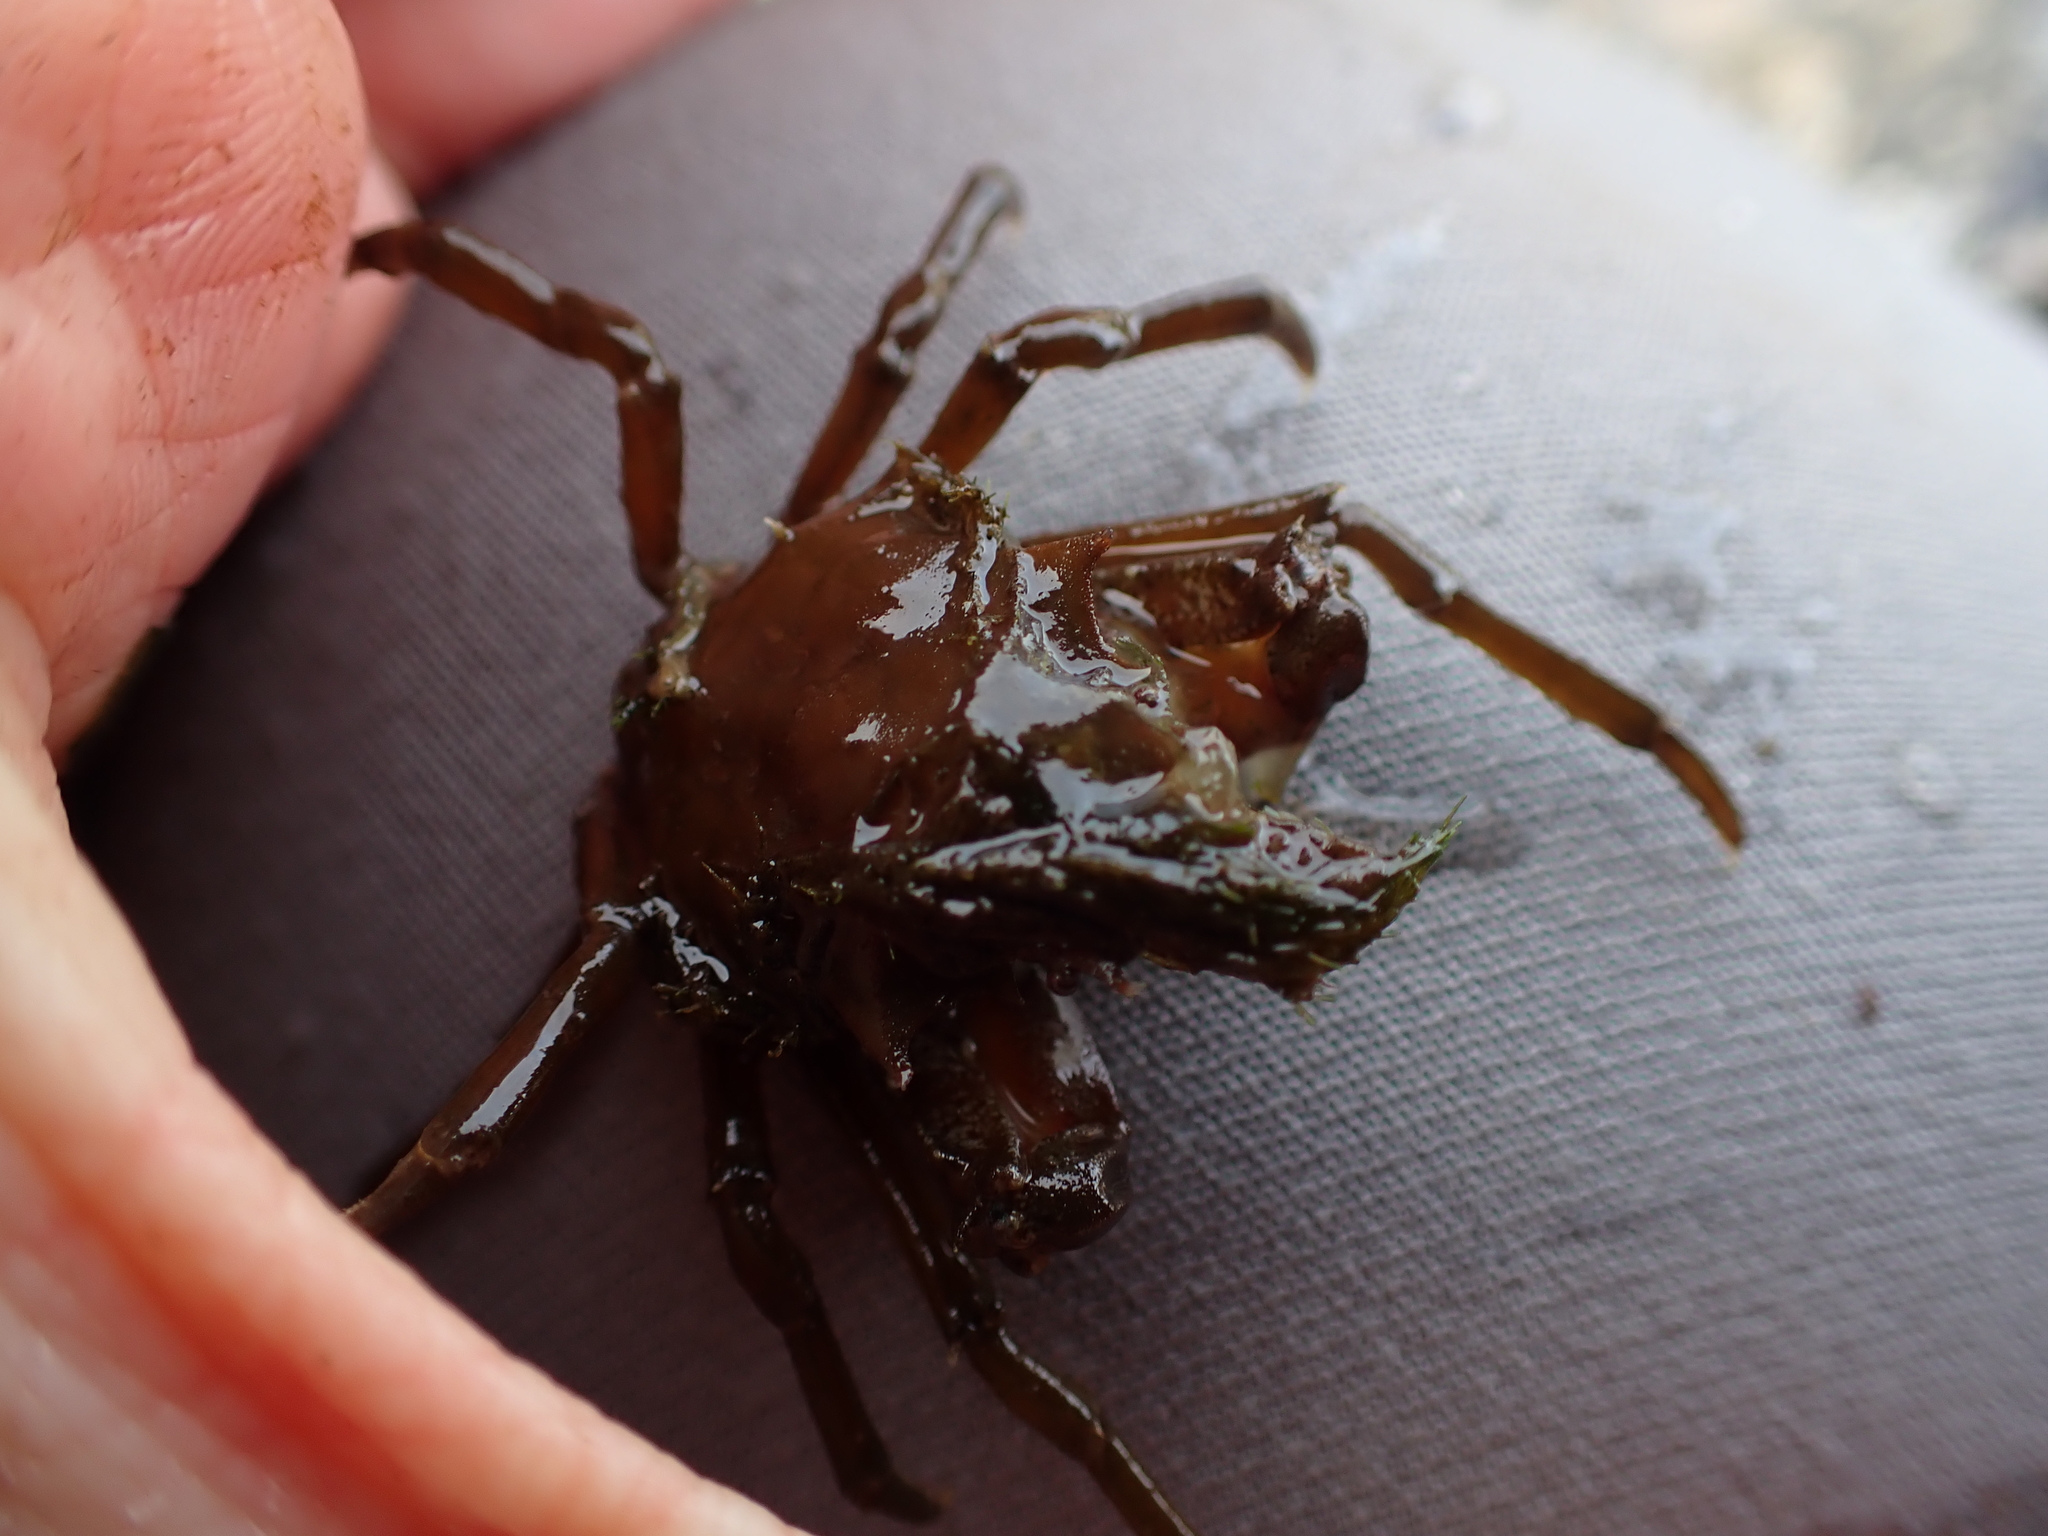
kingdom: Animalia
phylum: Arthropoda
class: Malacostraca
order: Decapoda
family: Epialtidae
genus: Pugettia
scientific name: Pugettia producta
